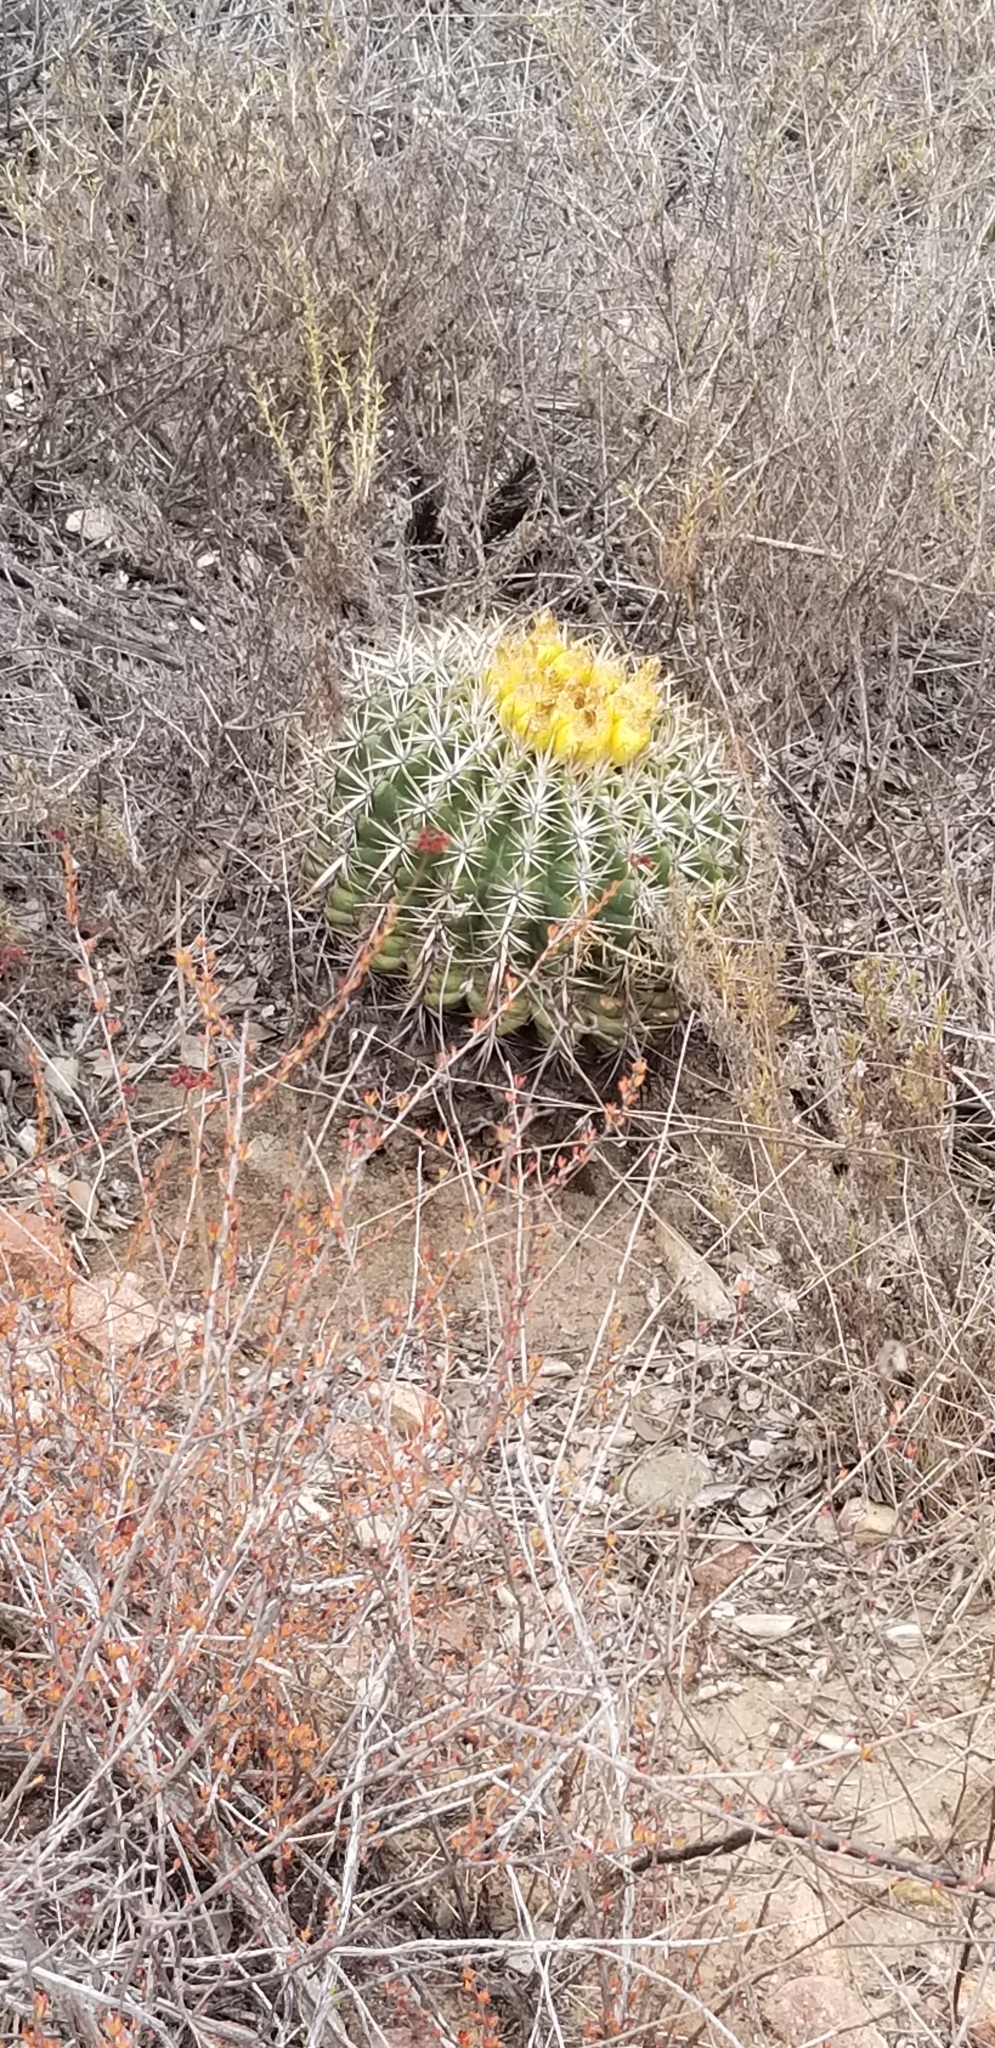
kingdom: Plantae
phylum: Tracheophyta
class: Magnoliopsida
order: Caryophyllales
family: Cactaceae
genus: Ferocactus
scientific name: Ferocactus viridescens
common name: San diego barrel cactus
